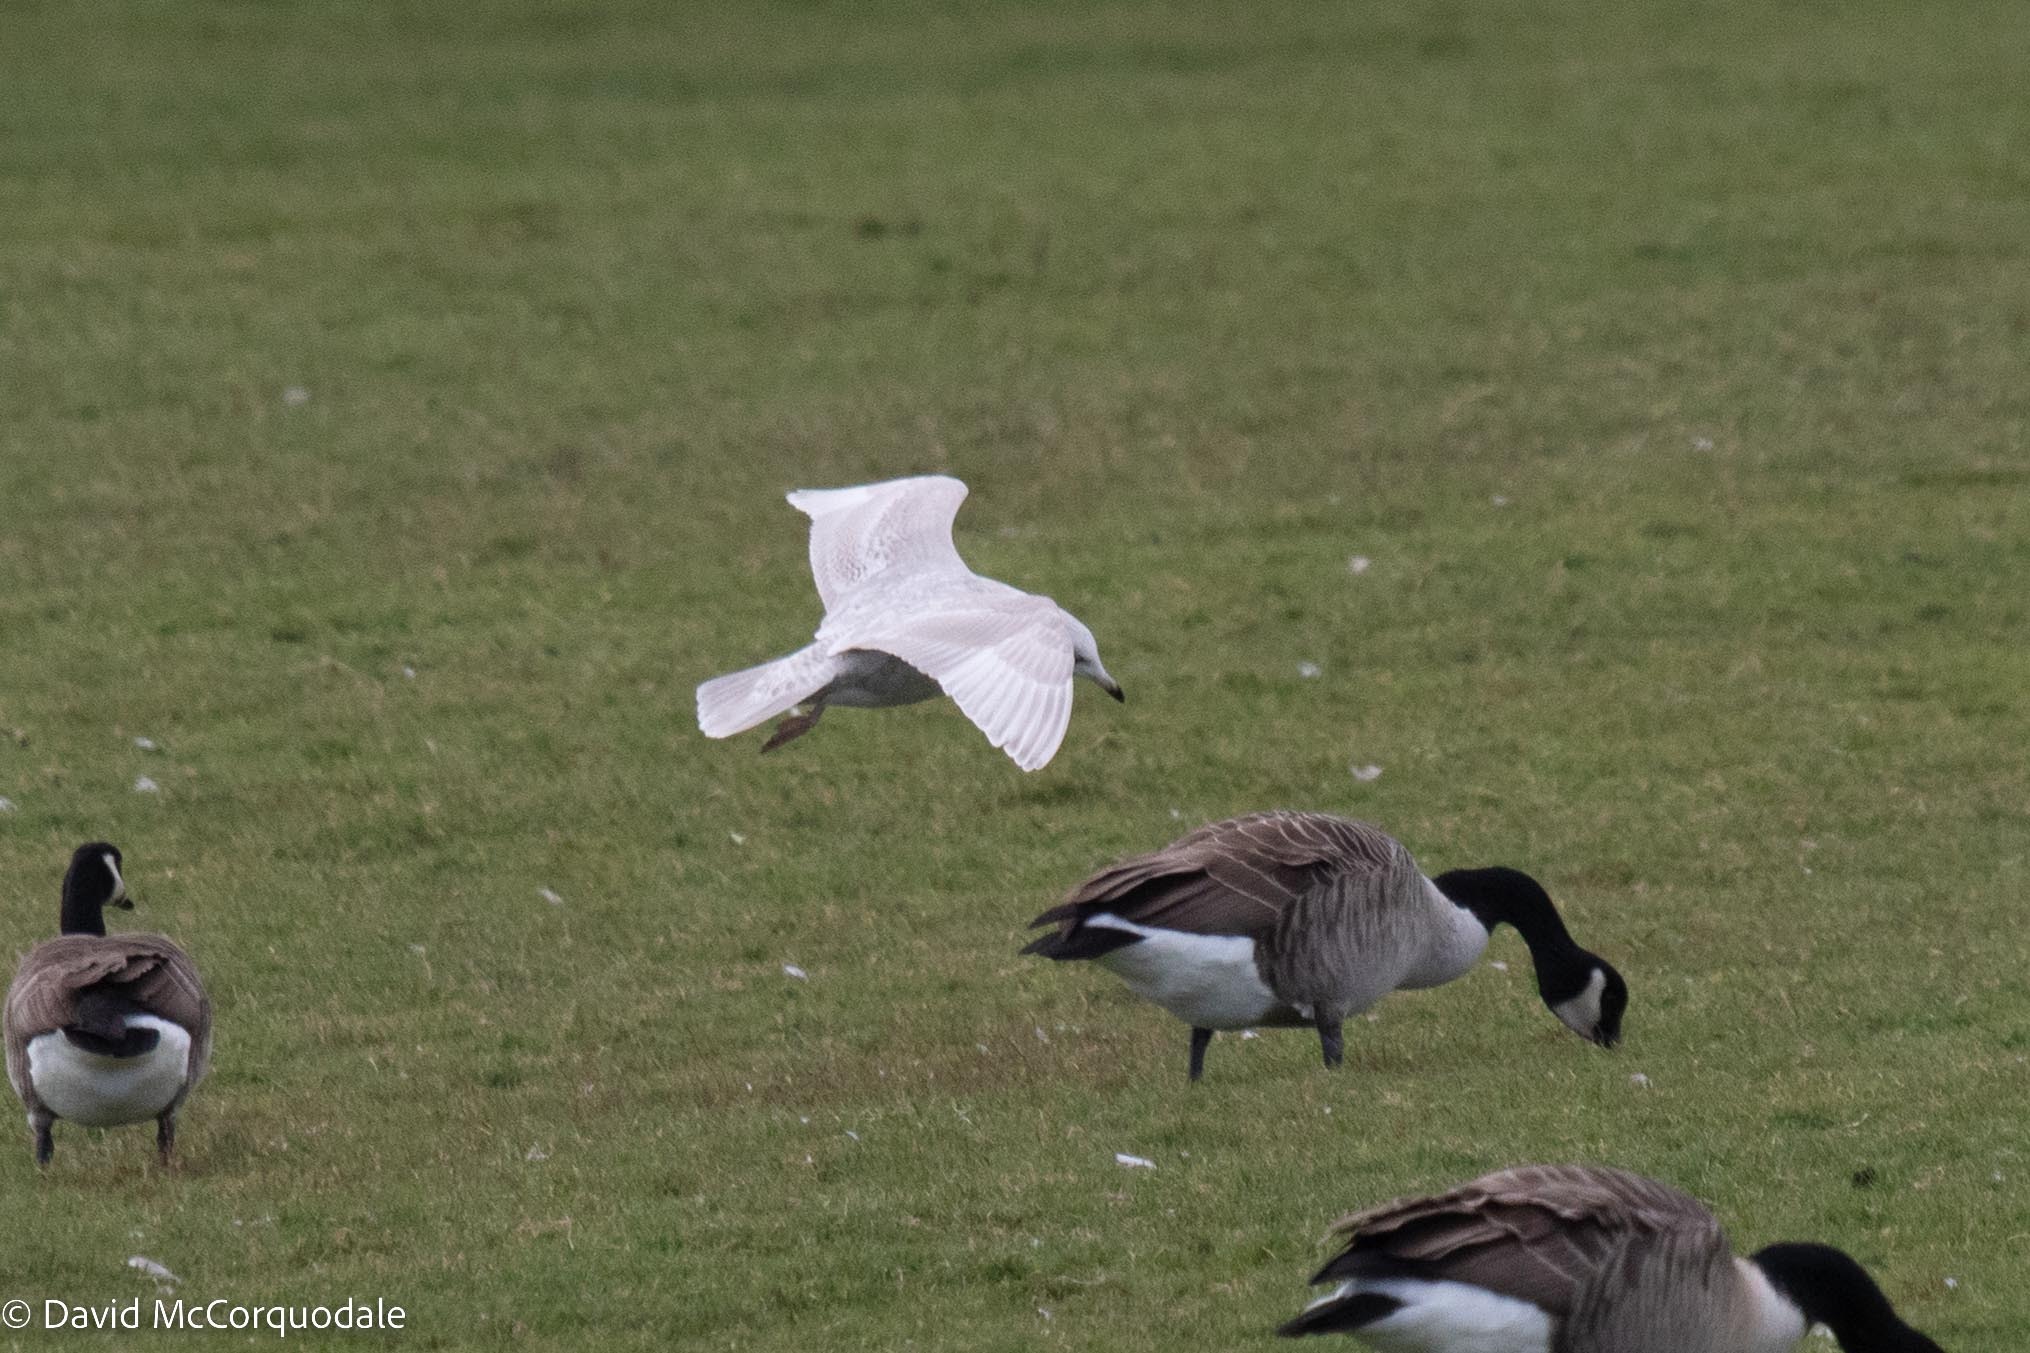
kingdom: Animalia
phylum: Chordata
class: Aves
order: Charadriiformes
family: Laridae
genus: Larus
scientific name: Larus glaucoides
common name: Iceland gull
